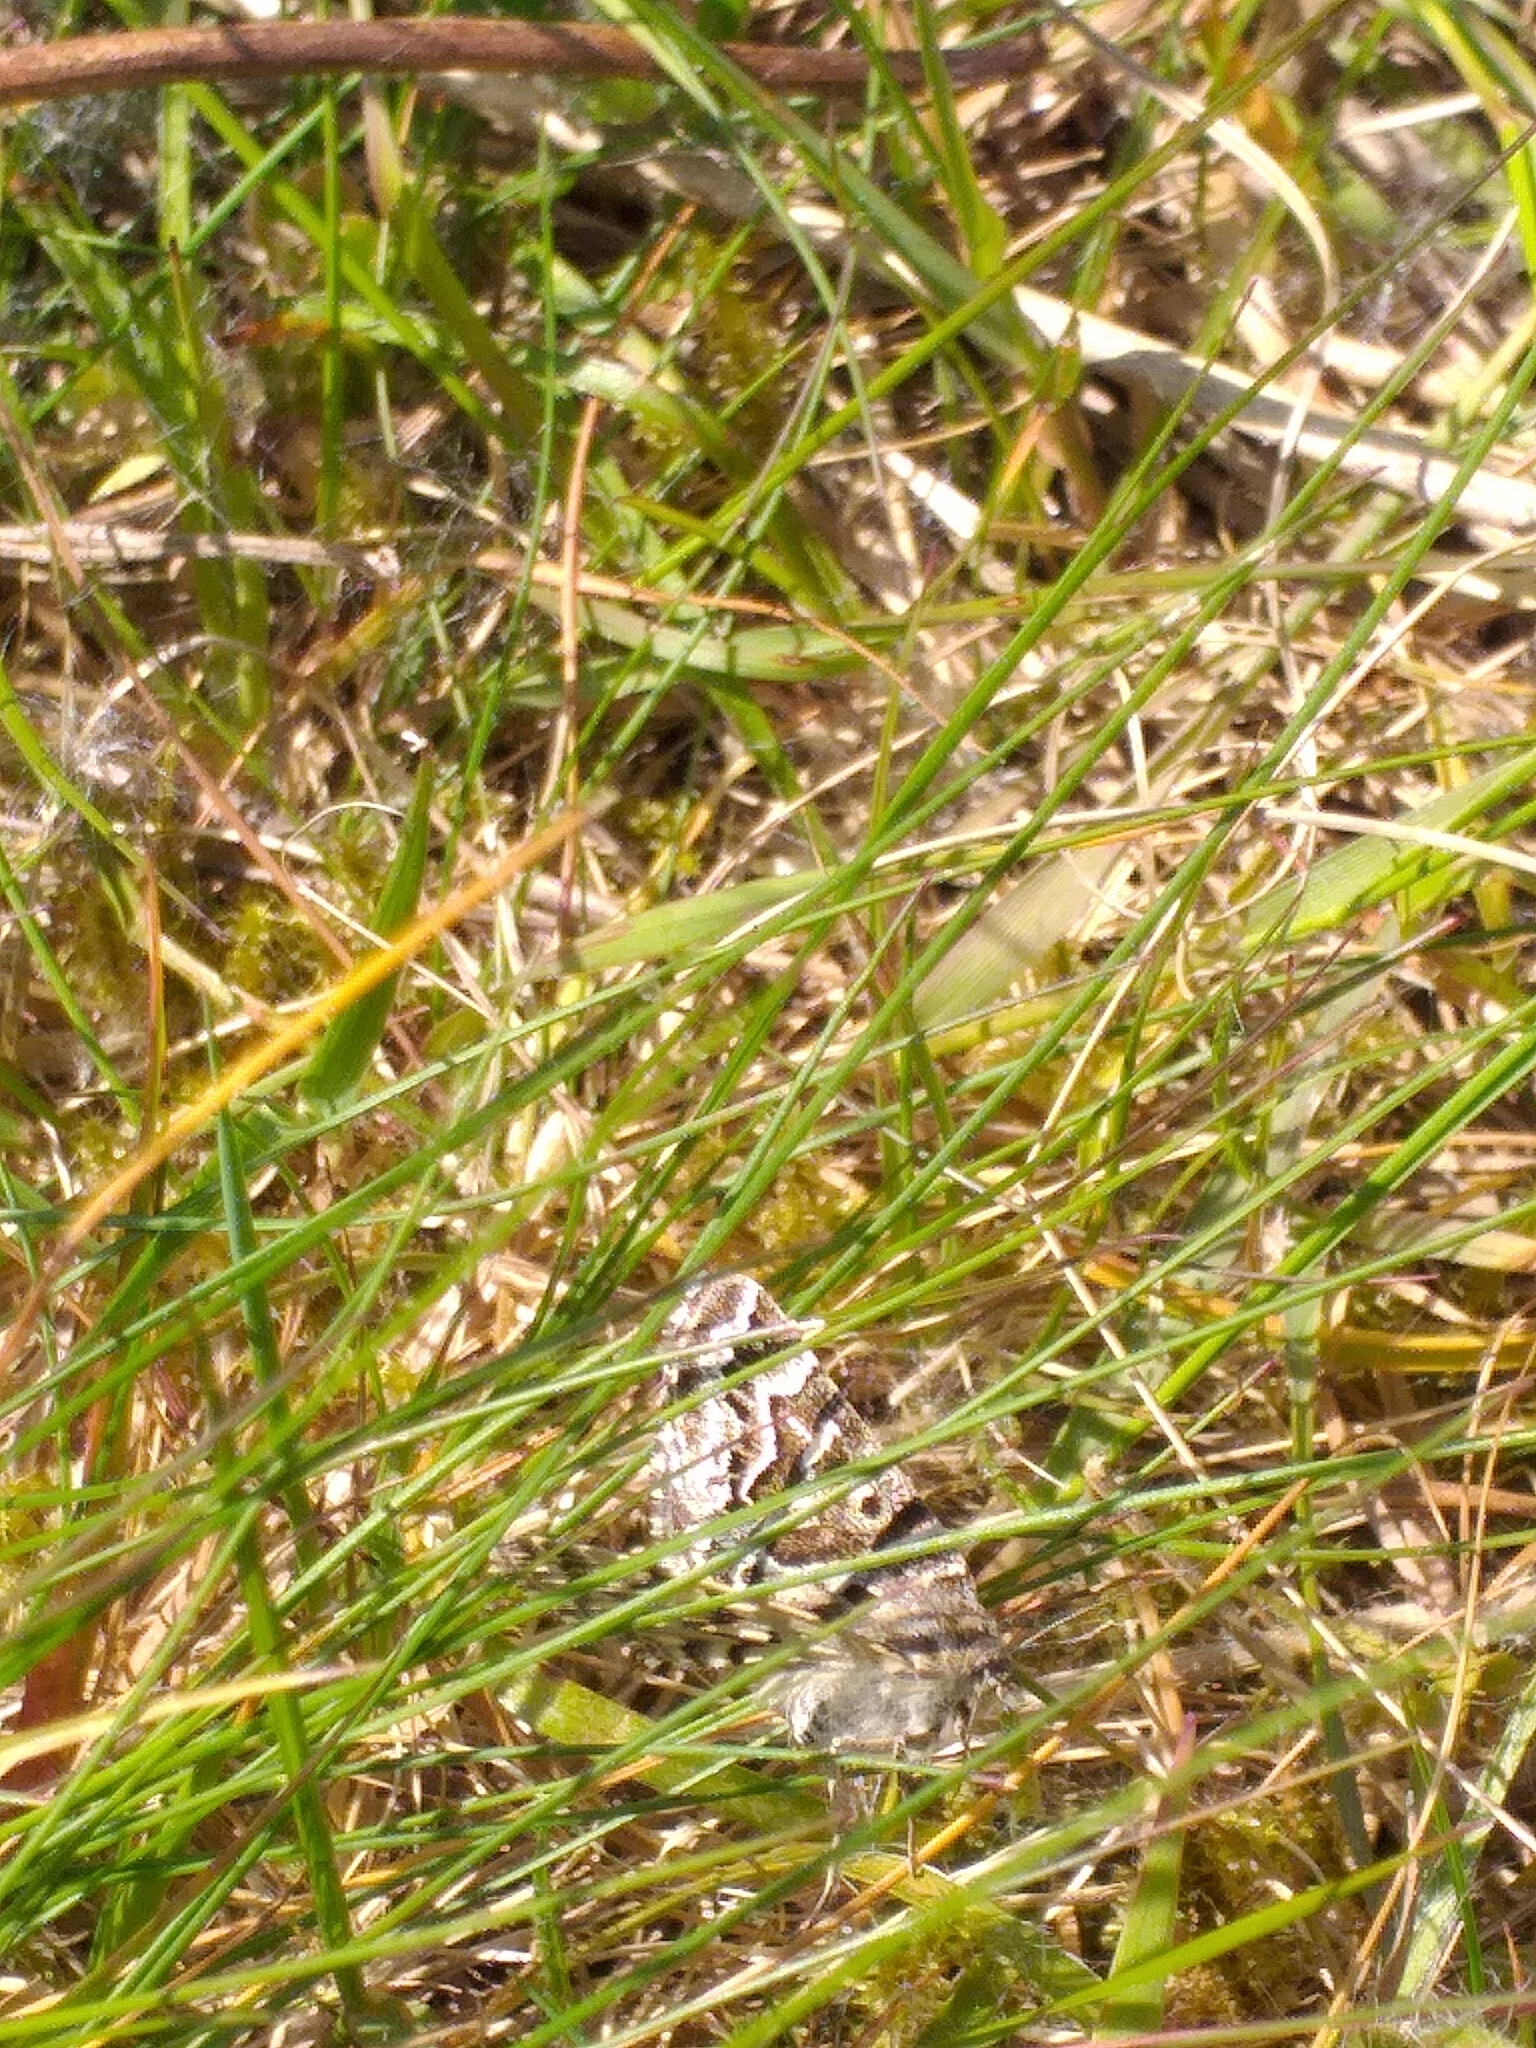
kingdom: Animalia
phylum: Arthropoda
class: Insecta
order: Lepidoptera
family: Erebidae
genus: Callistege
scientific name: Callistege mi
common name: Mother shipton
